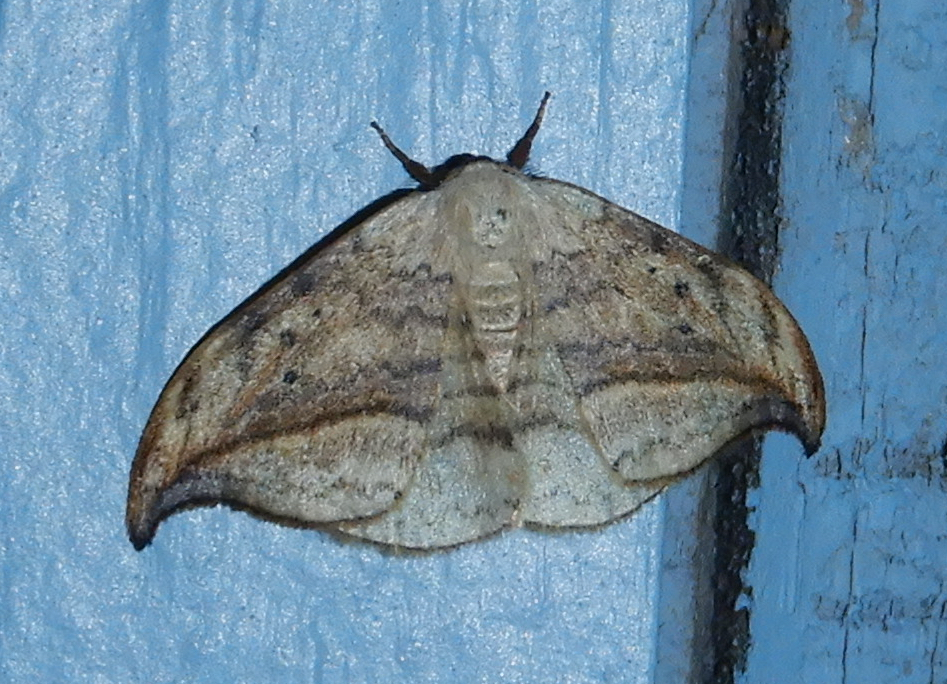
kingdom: Animalia
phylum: Arthropoda
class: Insecta
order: Lepidoptera
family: Drepanidae
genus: Drepana
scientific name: Drepana arcuata
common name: Arched hooktip moth
